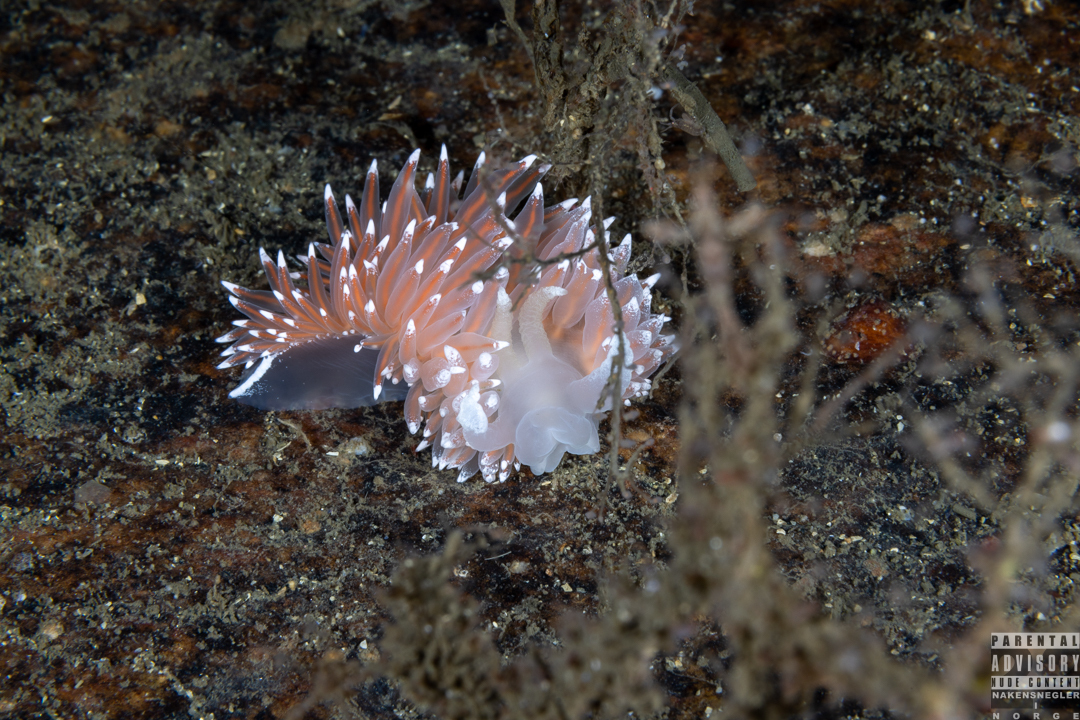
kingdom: Animalia
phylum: Mollusca
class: Gastropoda
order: Nudibranchia
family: Coryphellidae
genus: Coryphella
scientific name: Coryphella nobilis
